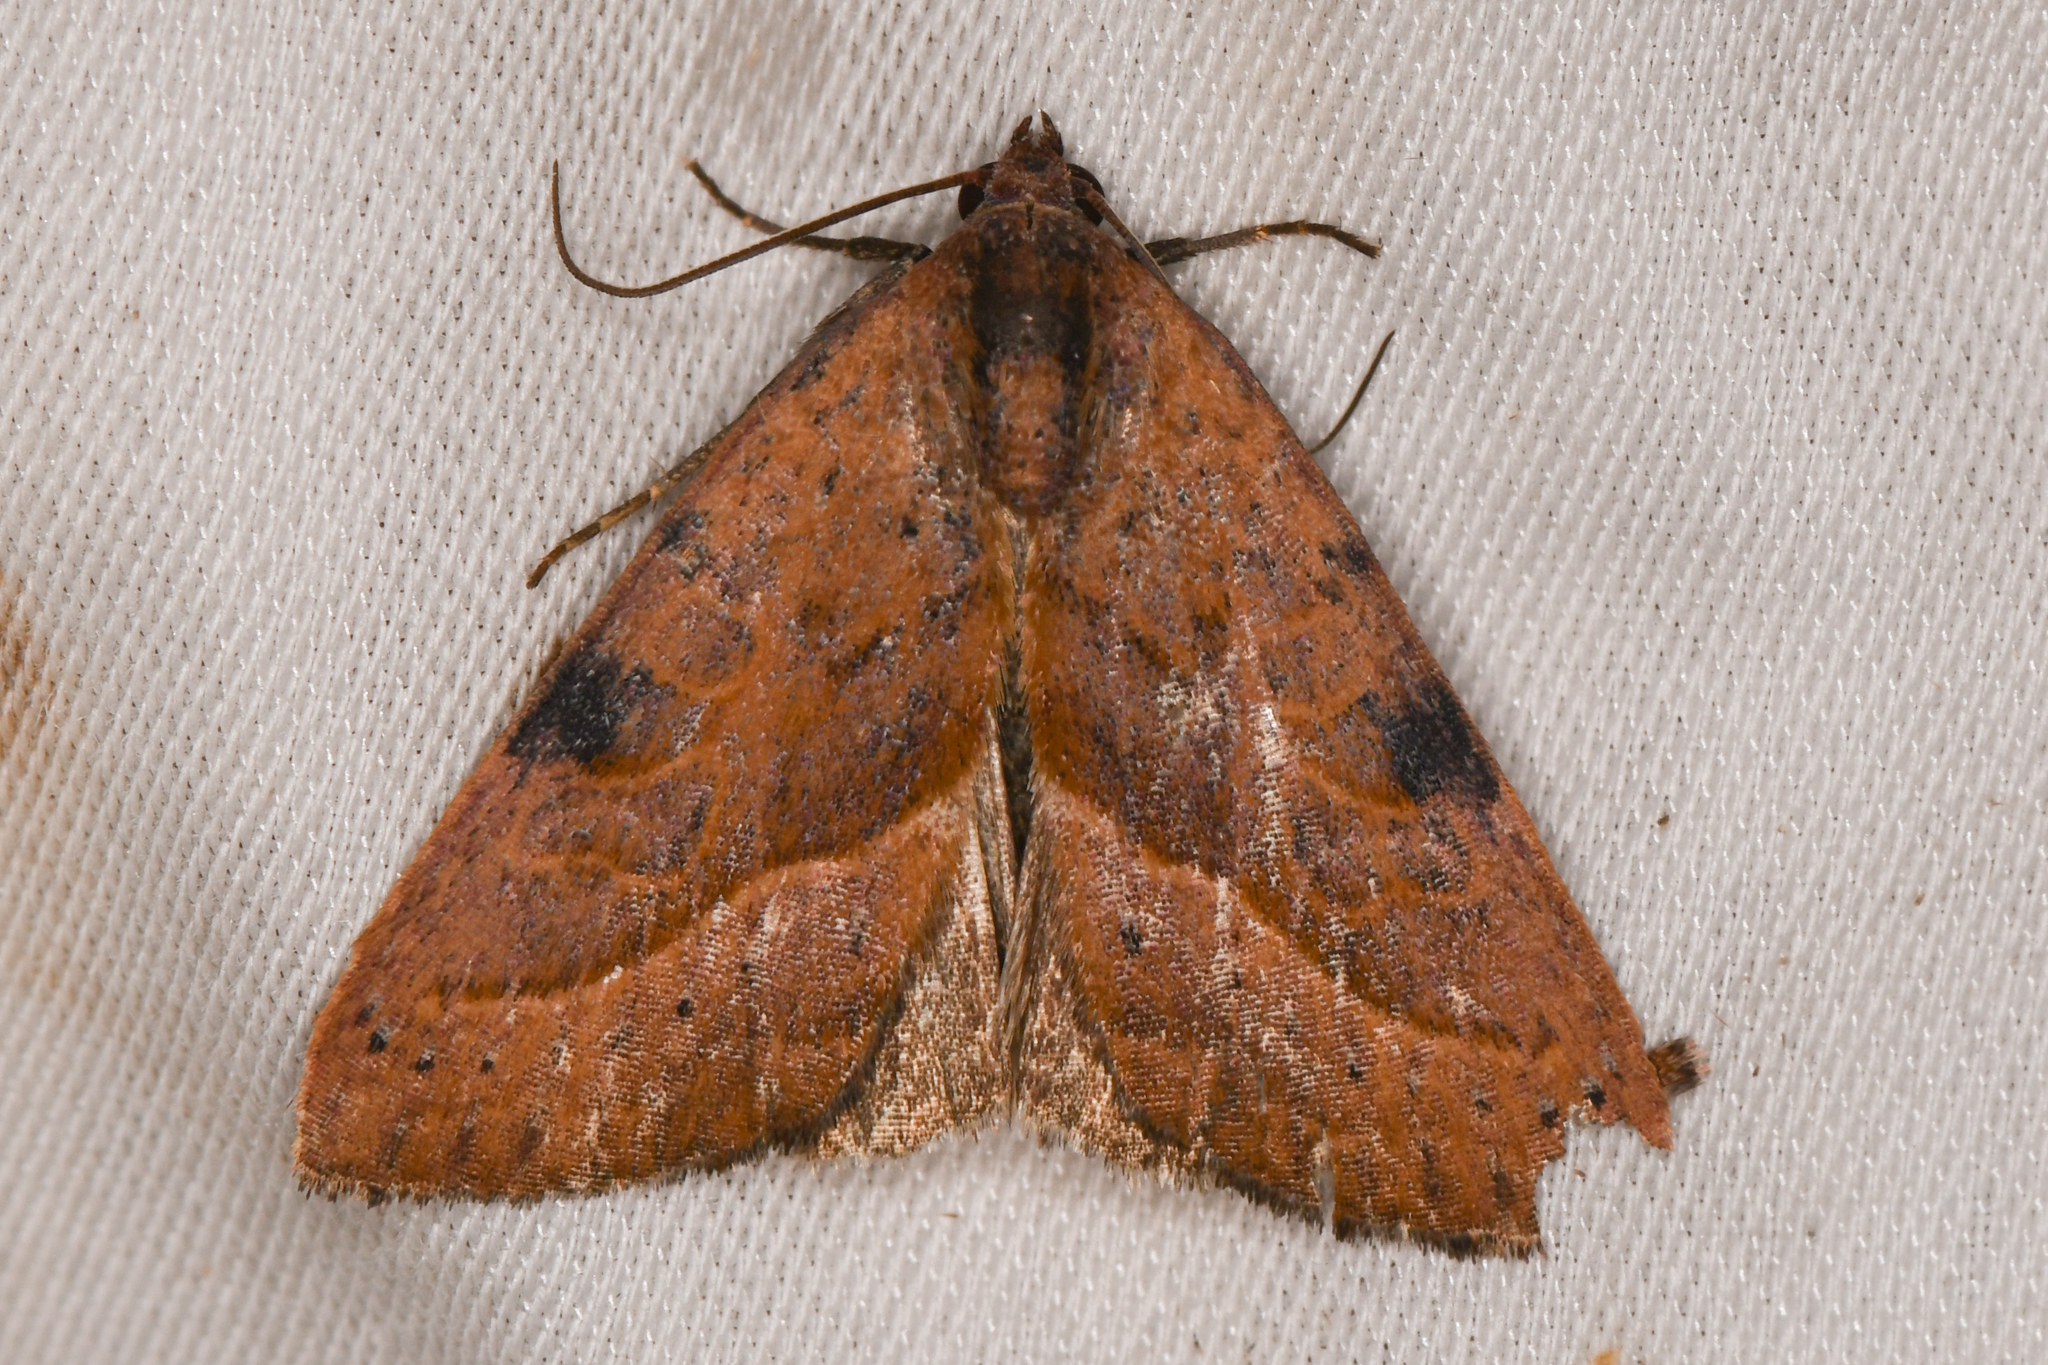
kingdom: Animalia
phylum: Arthropoda
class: Insecta
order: Lepidoptera
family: Noctuidae
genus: Galgula
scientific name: Galgula partita
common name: Wedgeling
